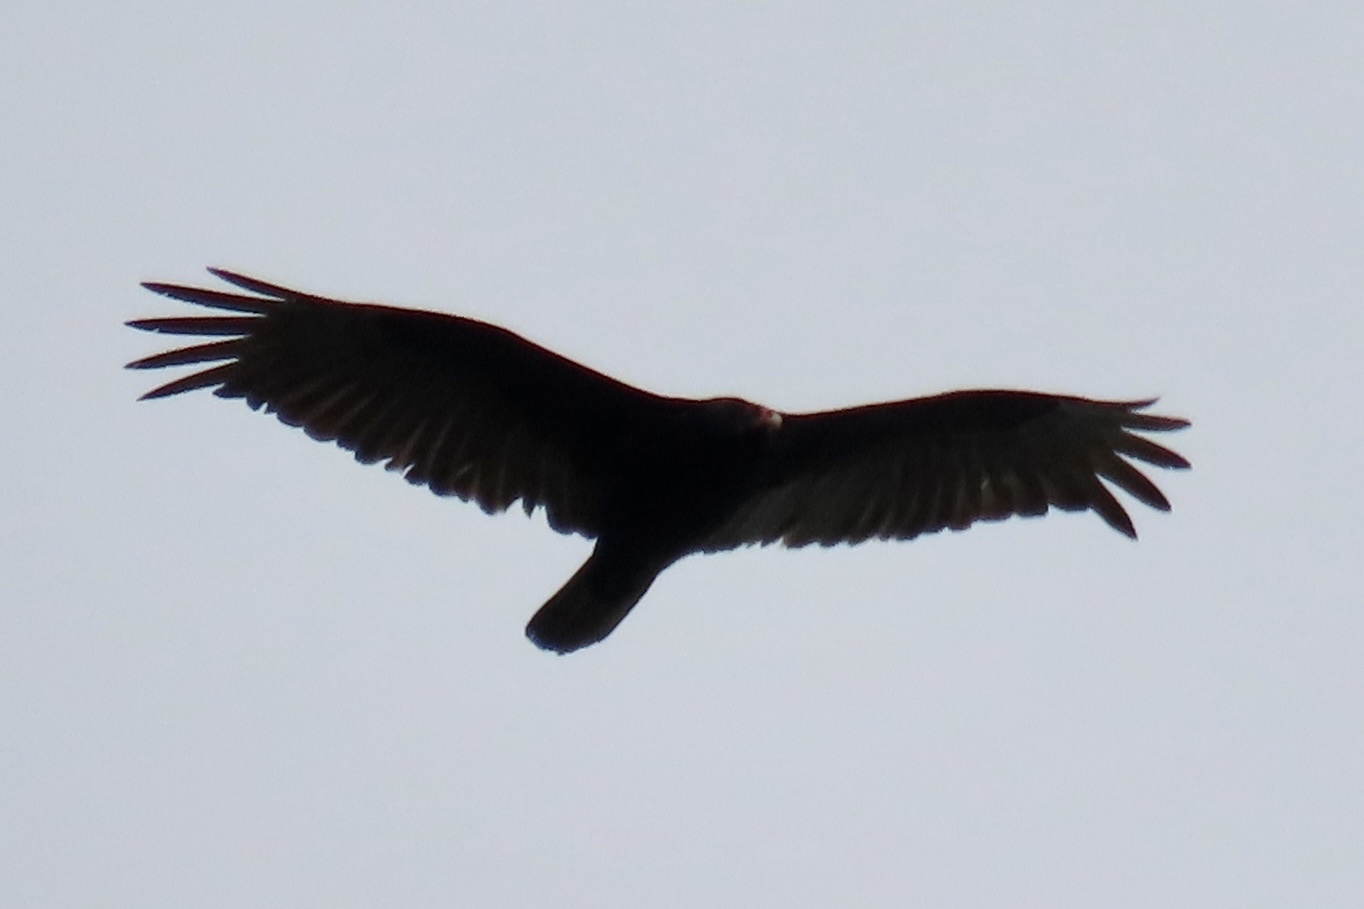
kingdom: Animalia
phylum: Chordata
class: Aves
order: Accipitriformes
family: Cathartidae
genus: Cathartes
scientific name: Cathartes aura
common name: Turkey vulture
